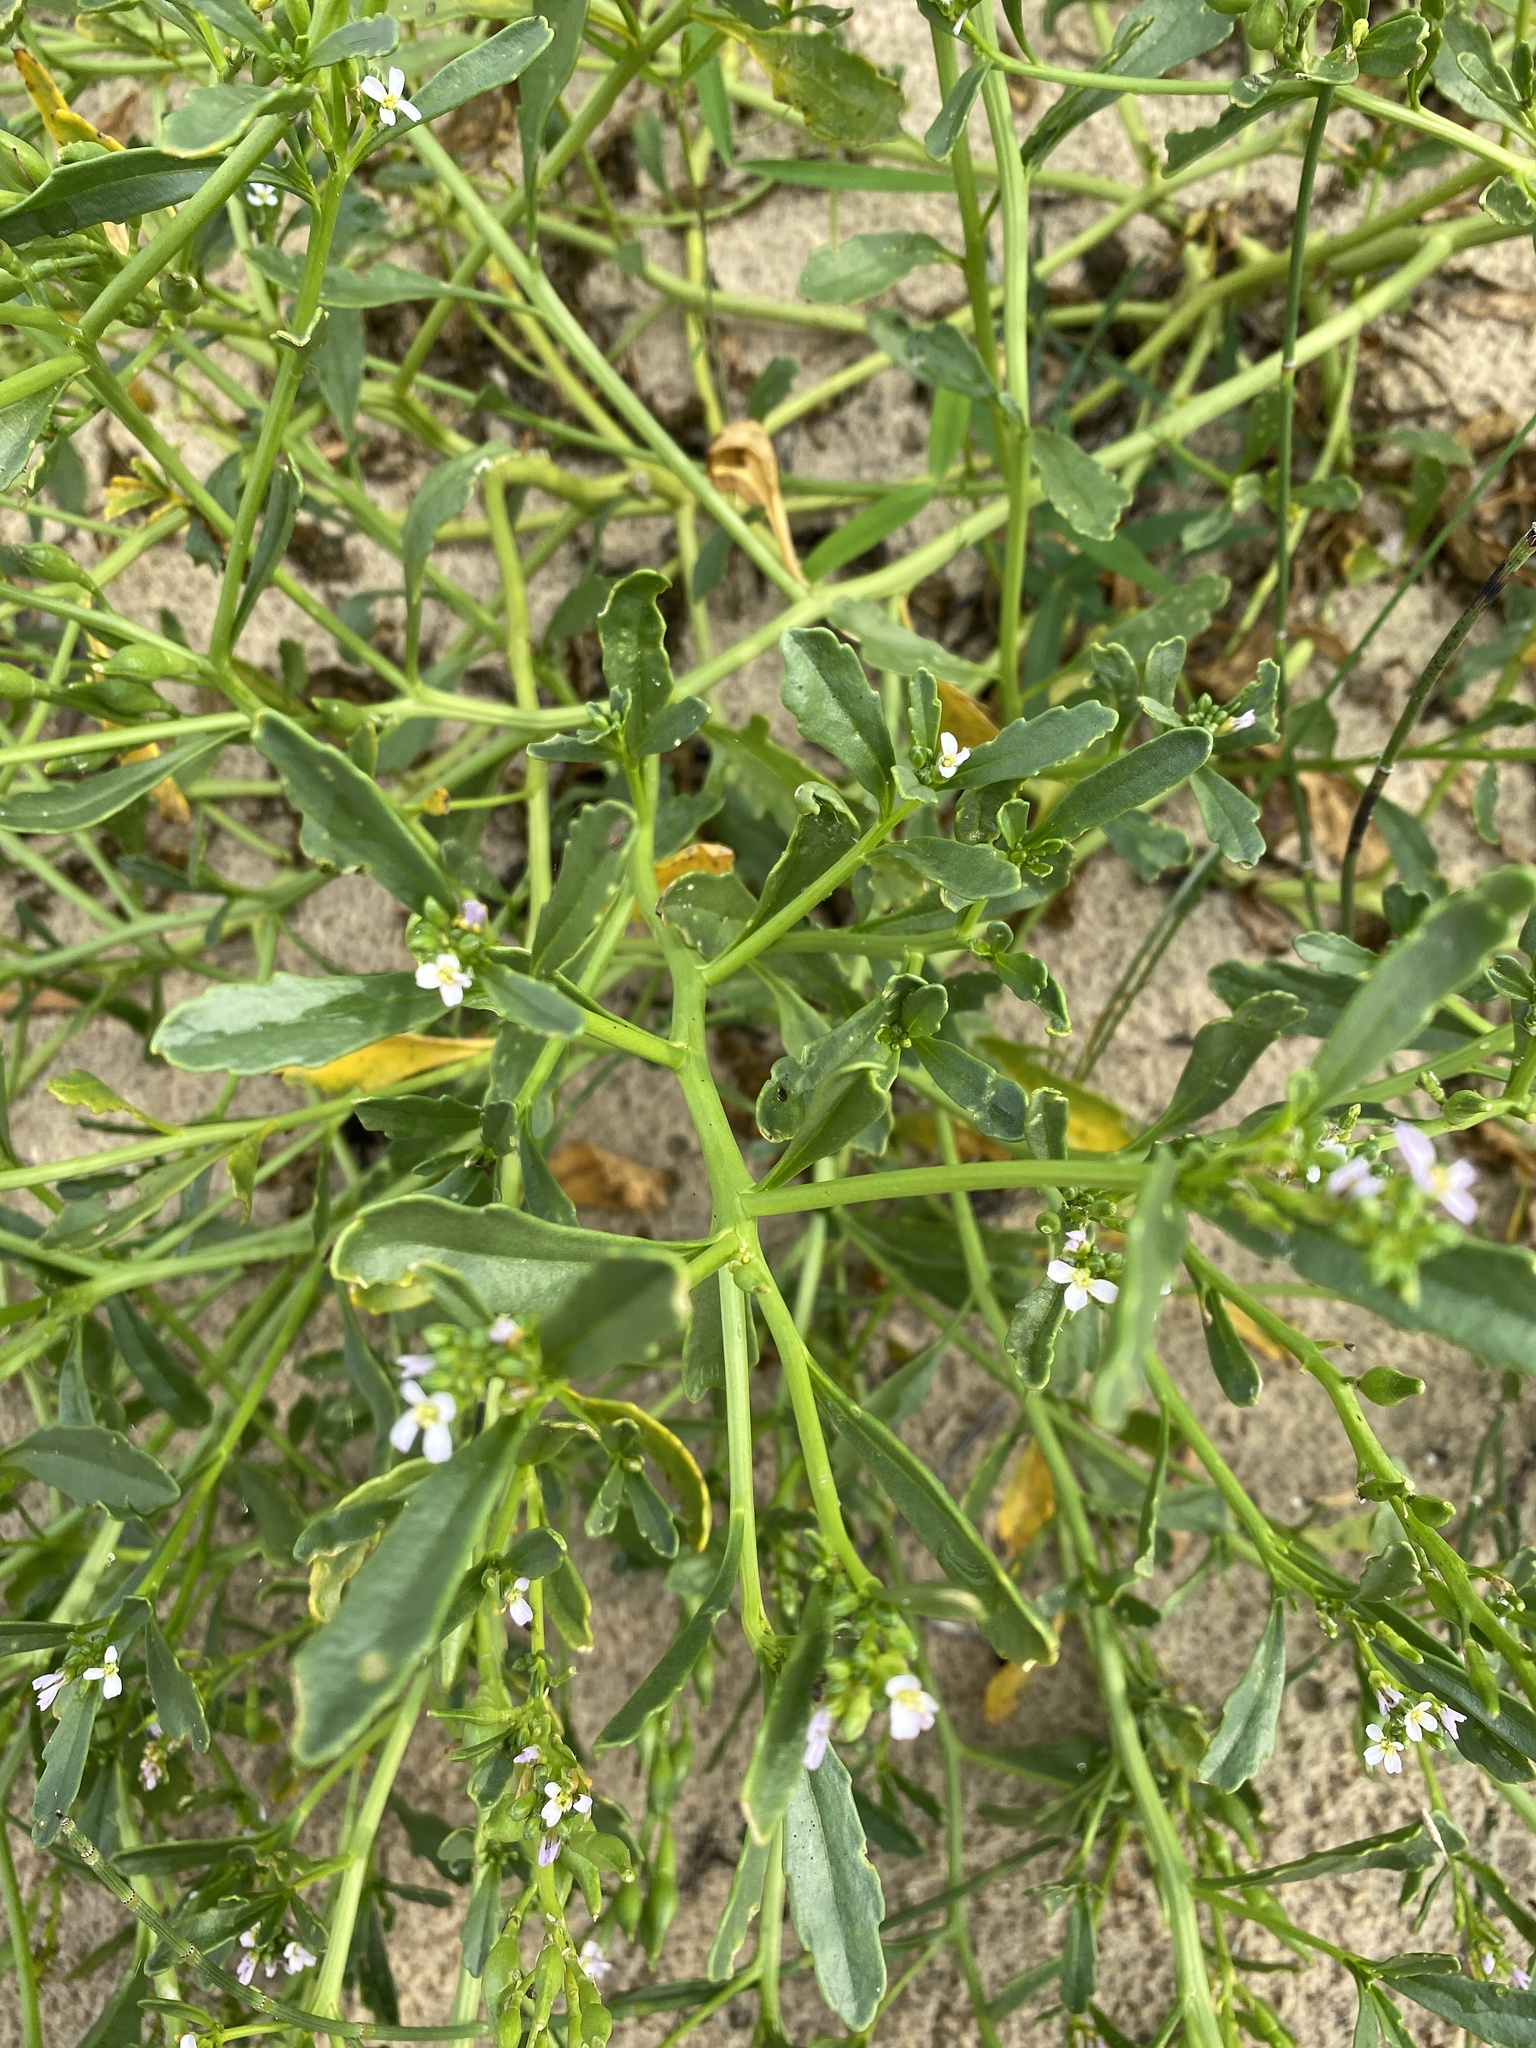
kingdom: Plantae
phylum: Tracheophyta
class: Magnoliopsida
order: Brassicales
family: Brassicaceae
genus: Cakile
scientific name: Cakile edentula
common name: American sea rocket
